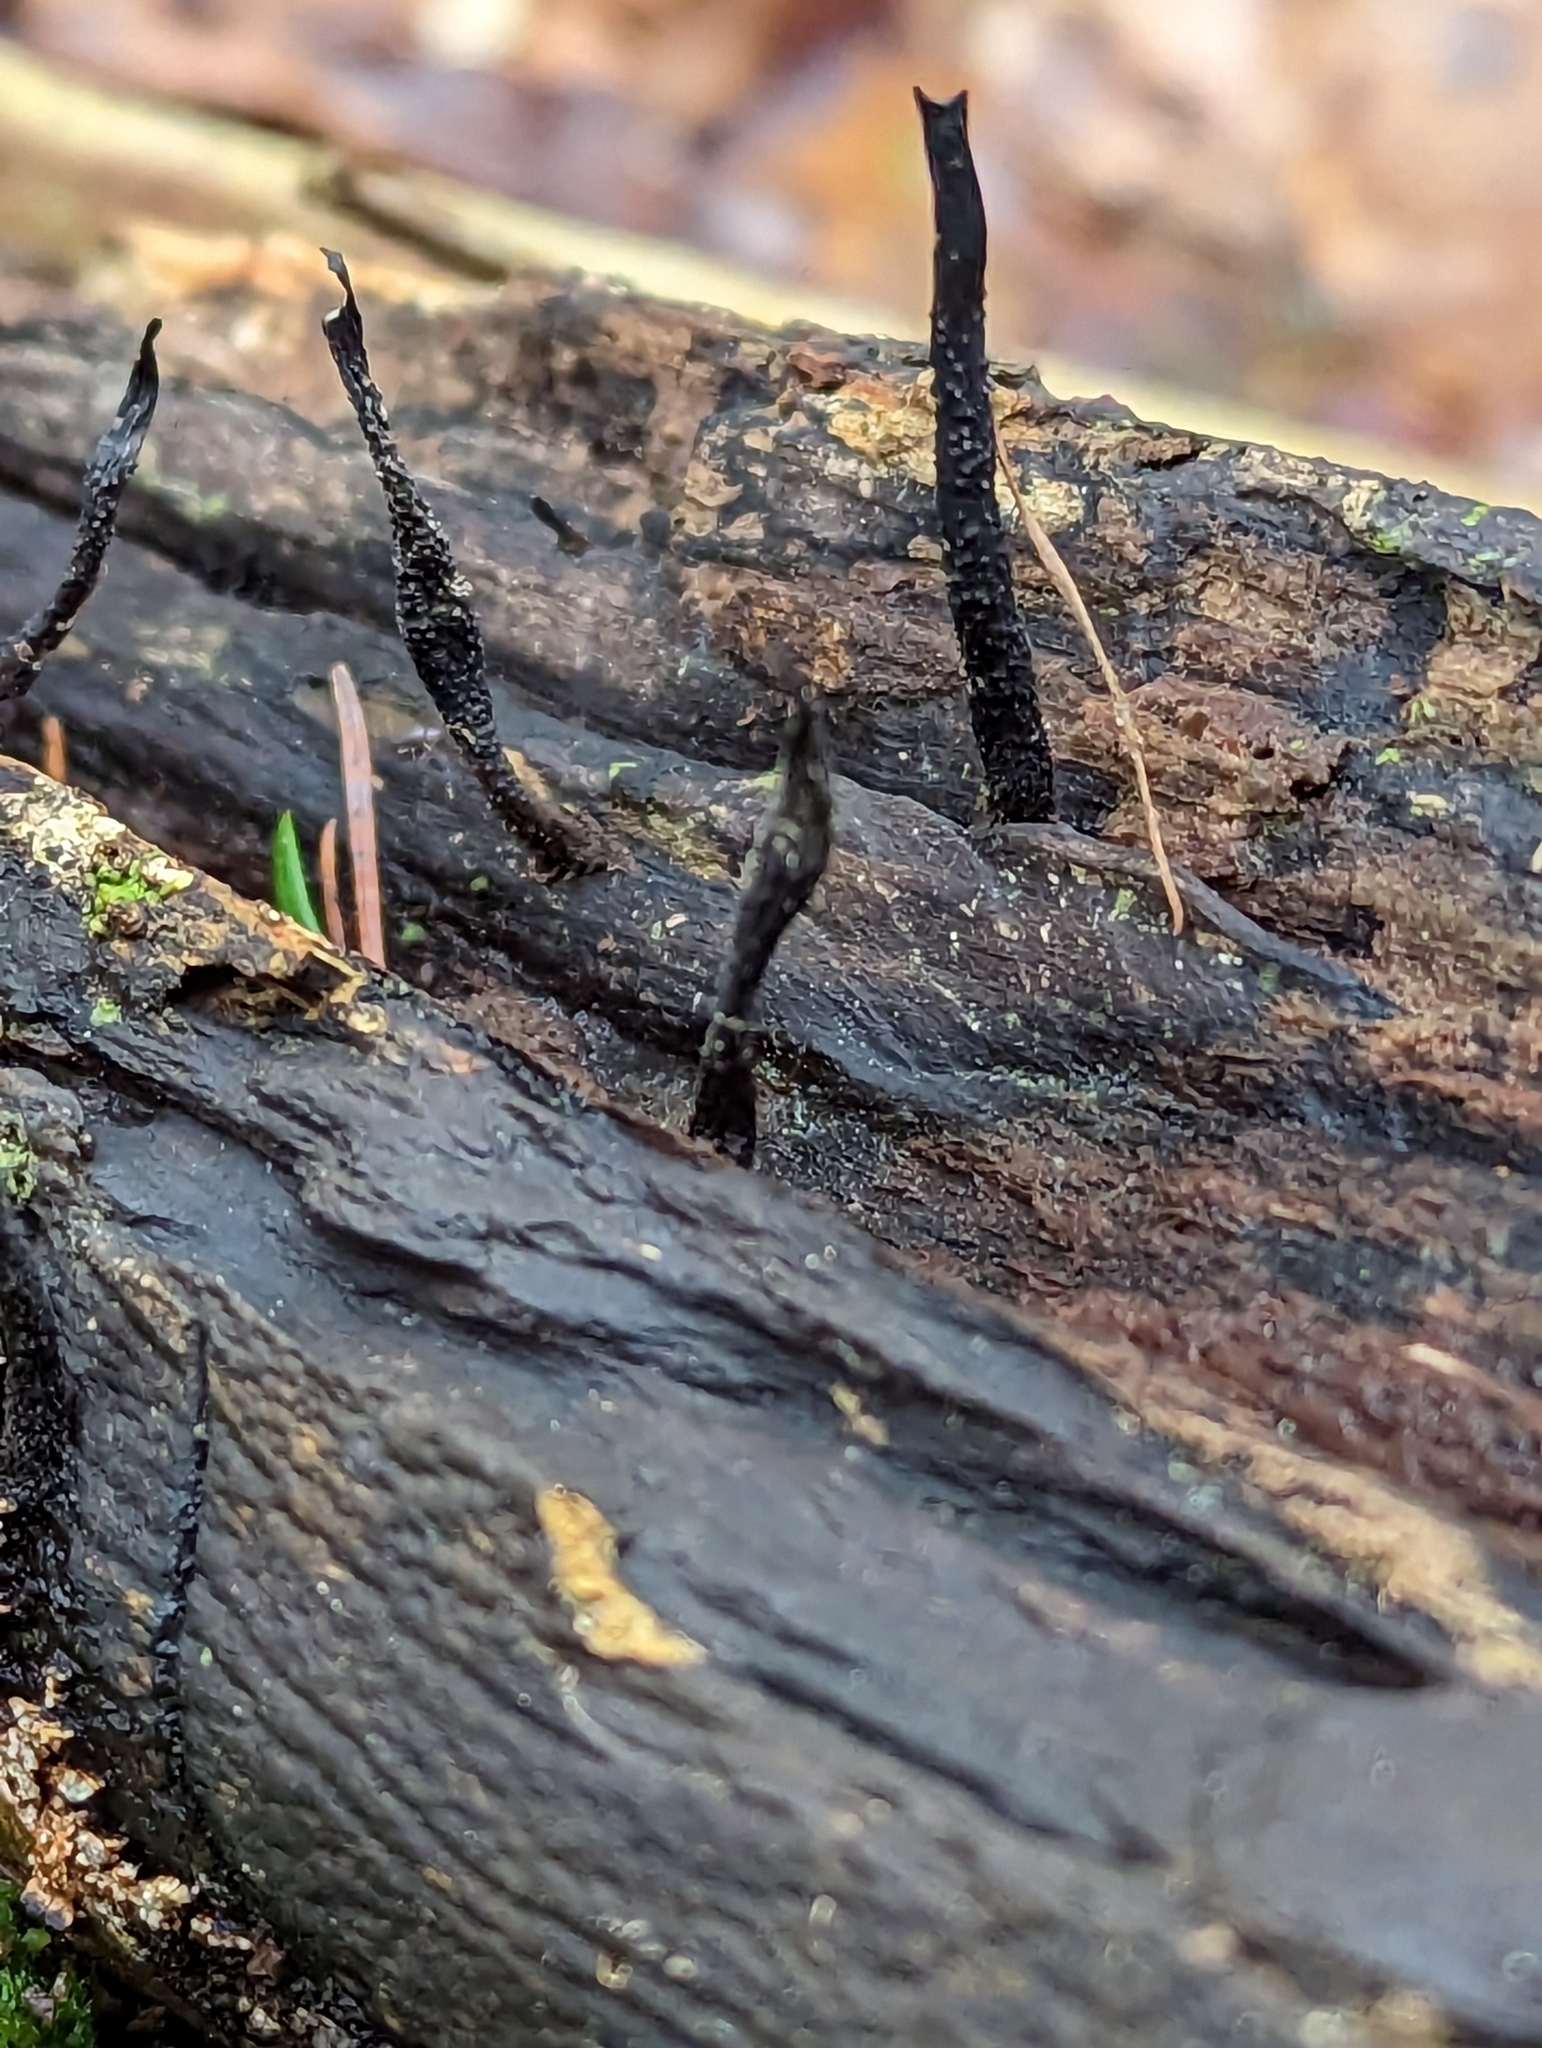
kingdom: Fungi
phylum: Ascomycota
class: Sordariomycetes
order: Xylariales
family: Xylariaceae
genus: Xylaria
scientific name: Xylaria hypoxylon
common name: Candle-snuff fungus
